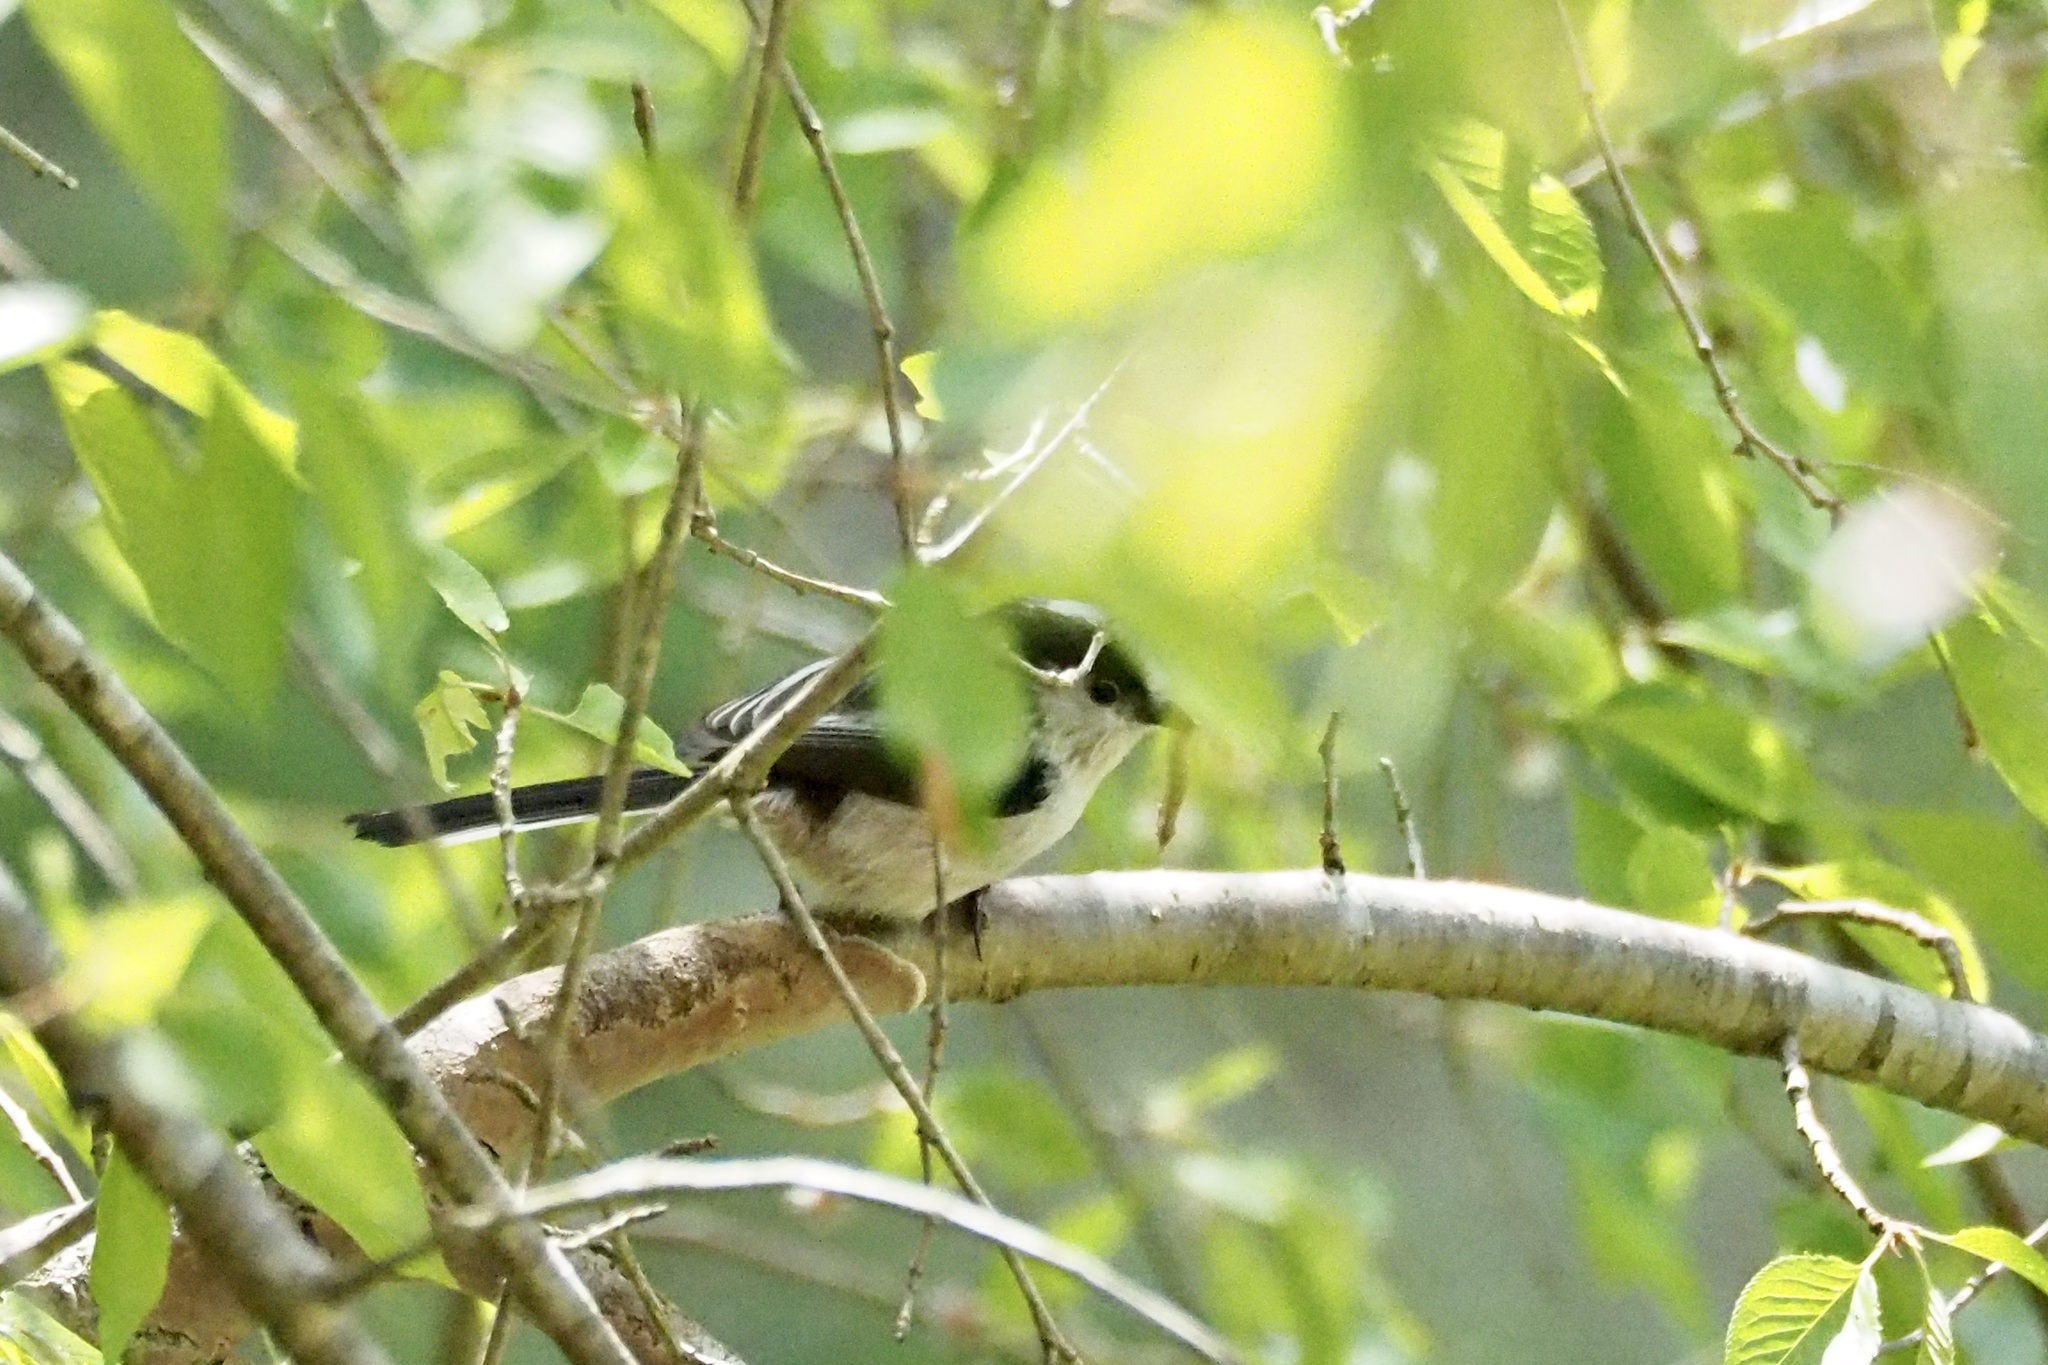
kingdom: Animalia
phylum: Chordata
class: Aves
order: Passeriformes
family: Aegithalidae
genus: Aegithalos
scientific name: Aegithalos caudatus
